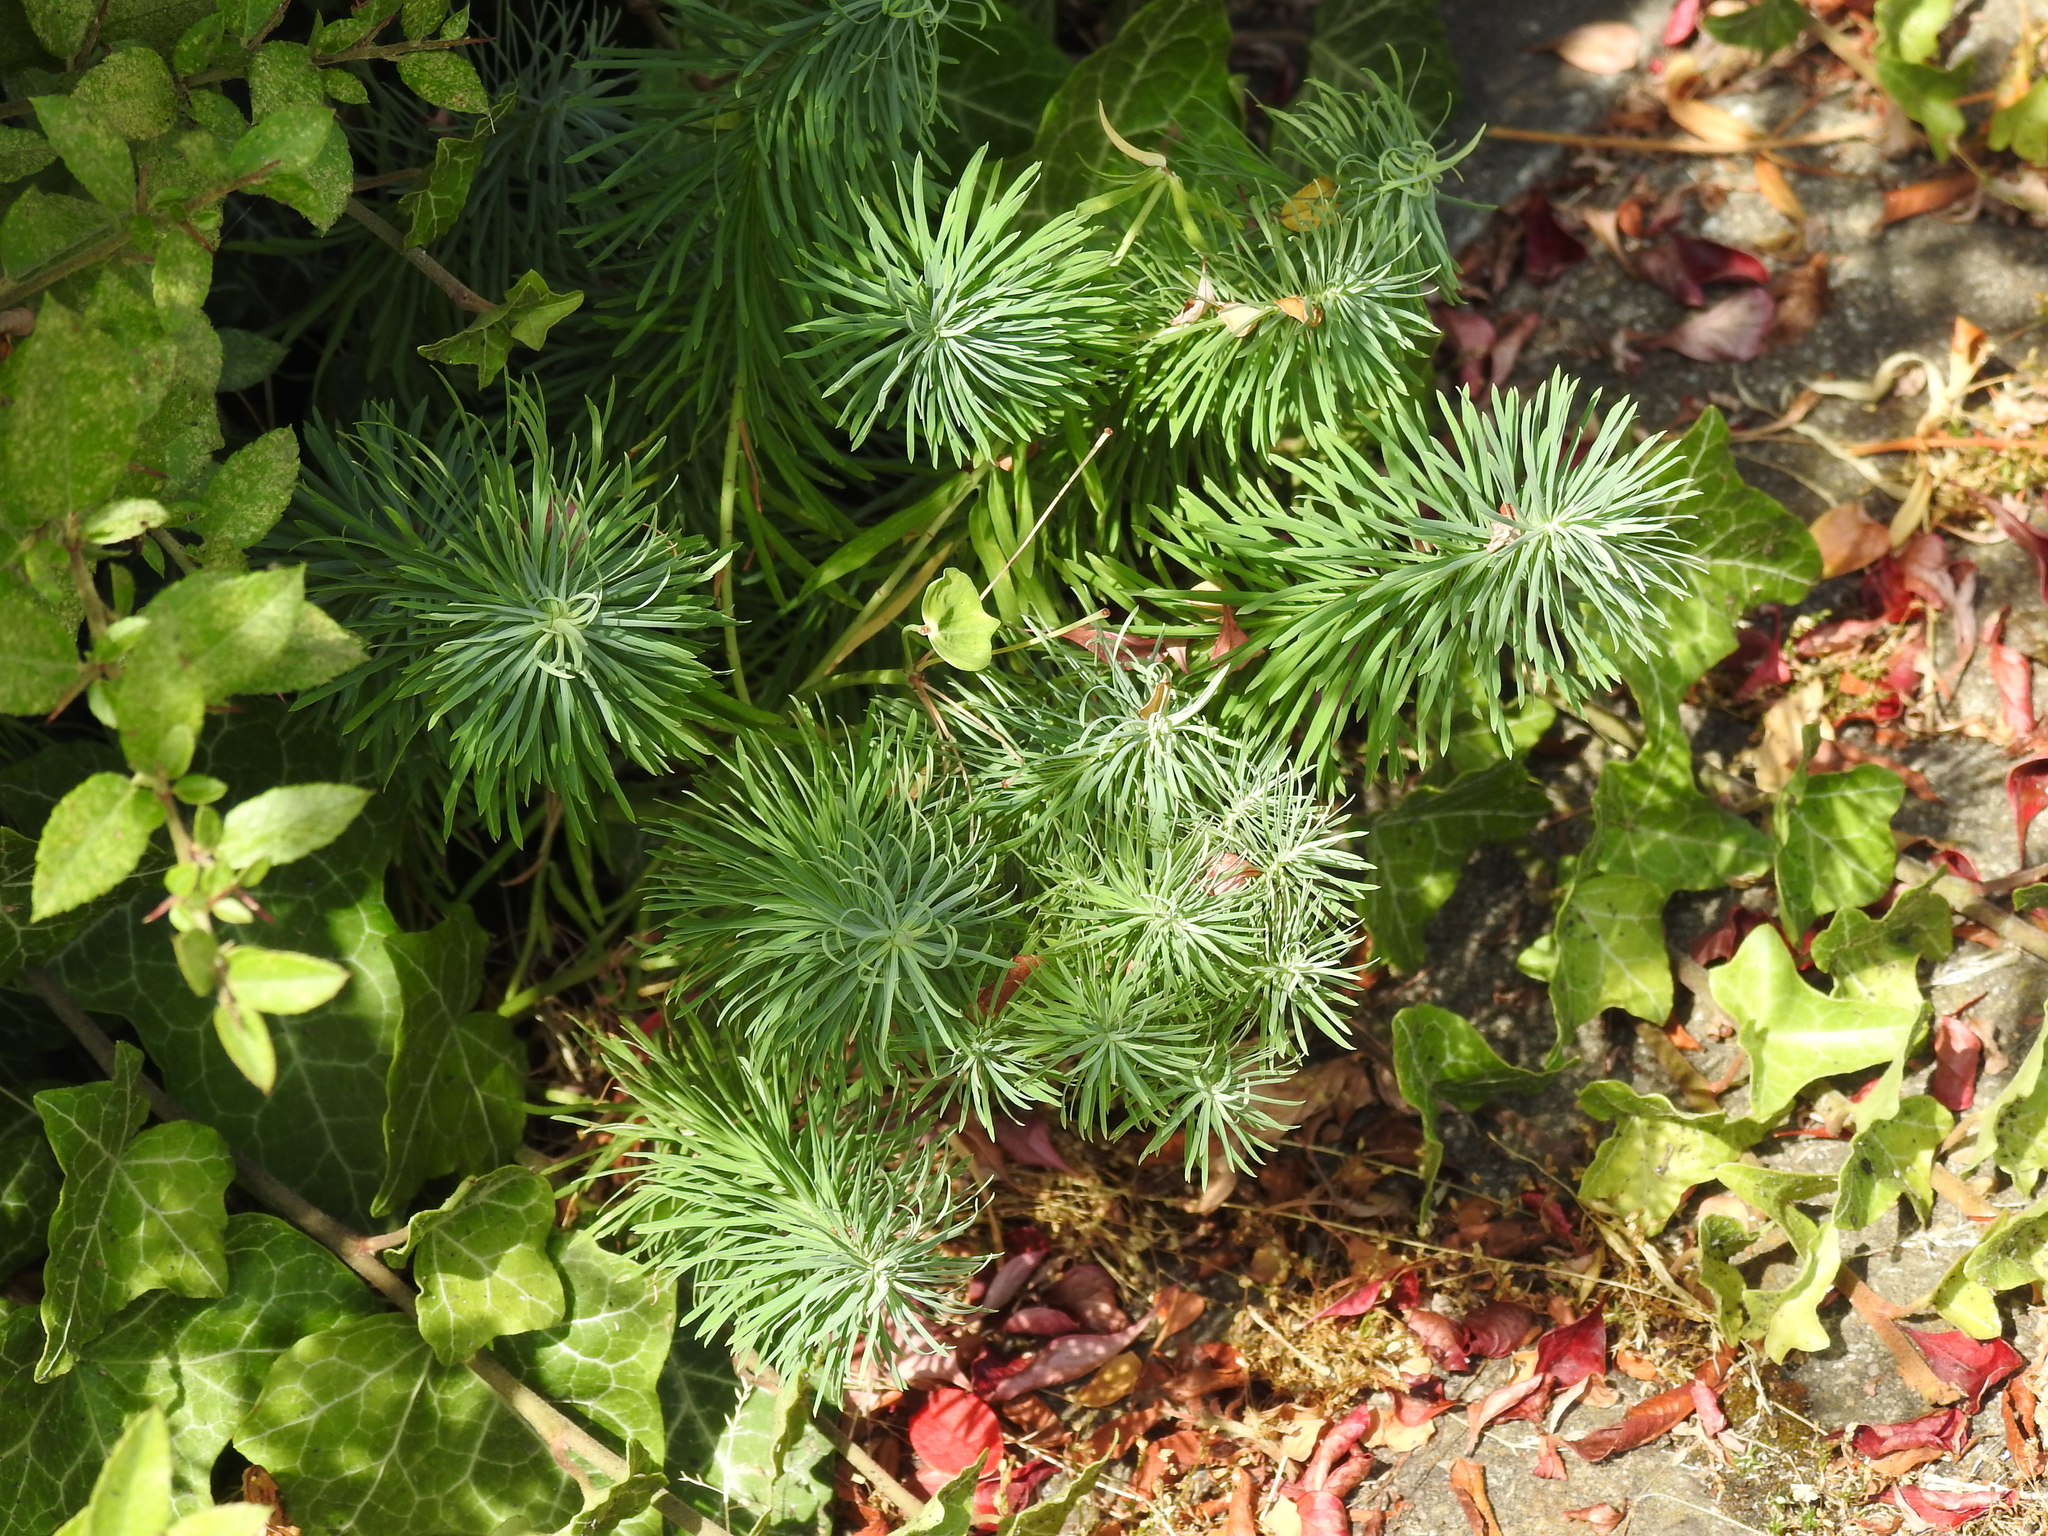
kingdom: Plantae
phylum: Tracheophyta
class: Magnoliopsida
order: Malpighiales
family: Euphorbiaceae
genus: Euphorbia
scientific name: Euphorbia cyparissias
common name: Cypress spurge
